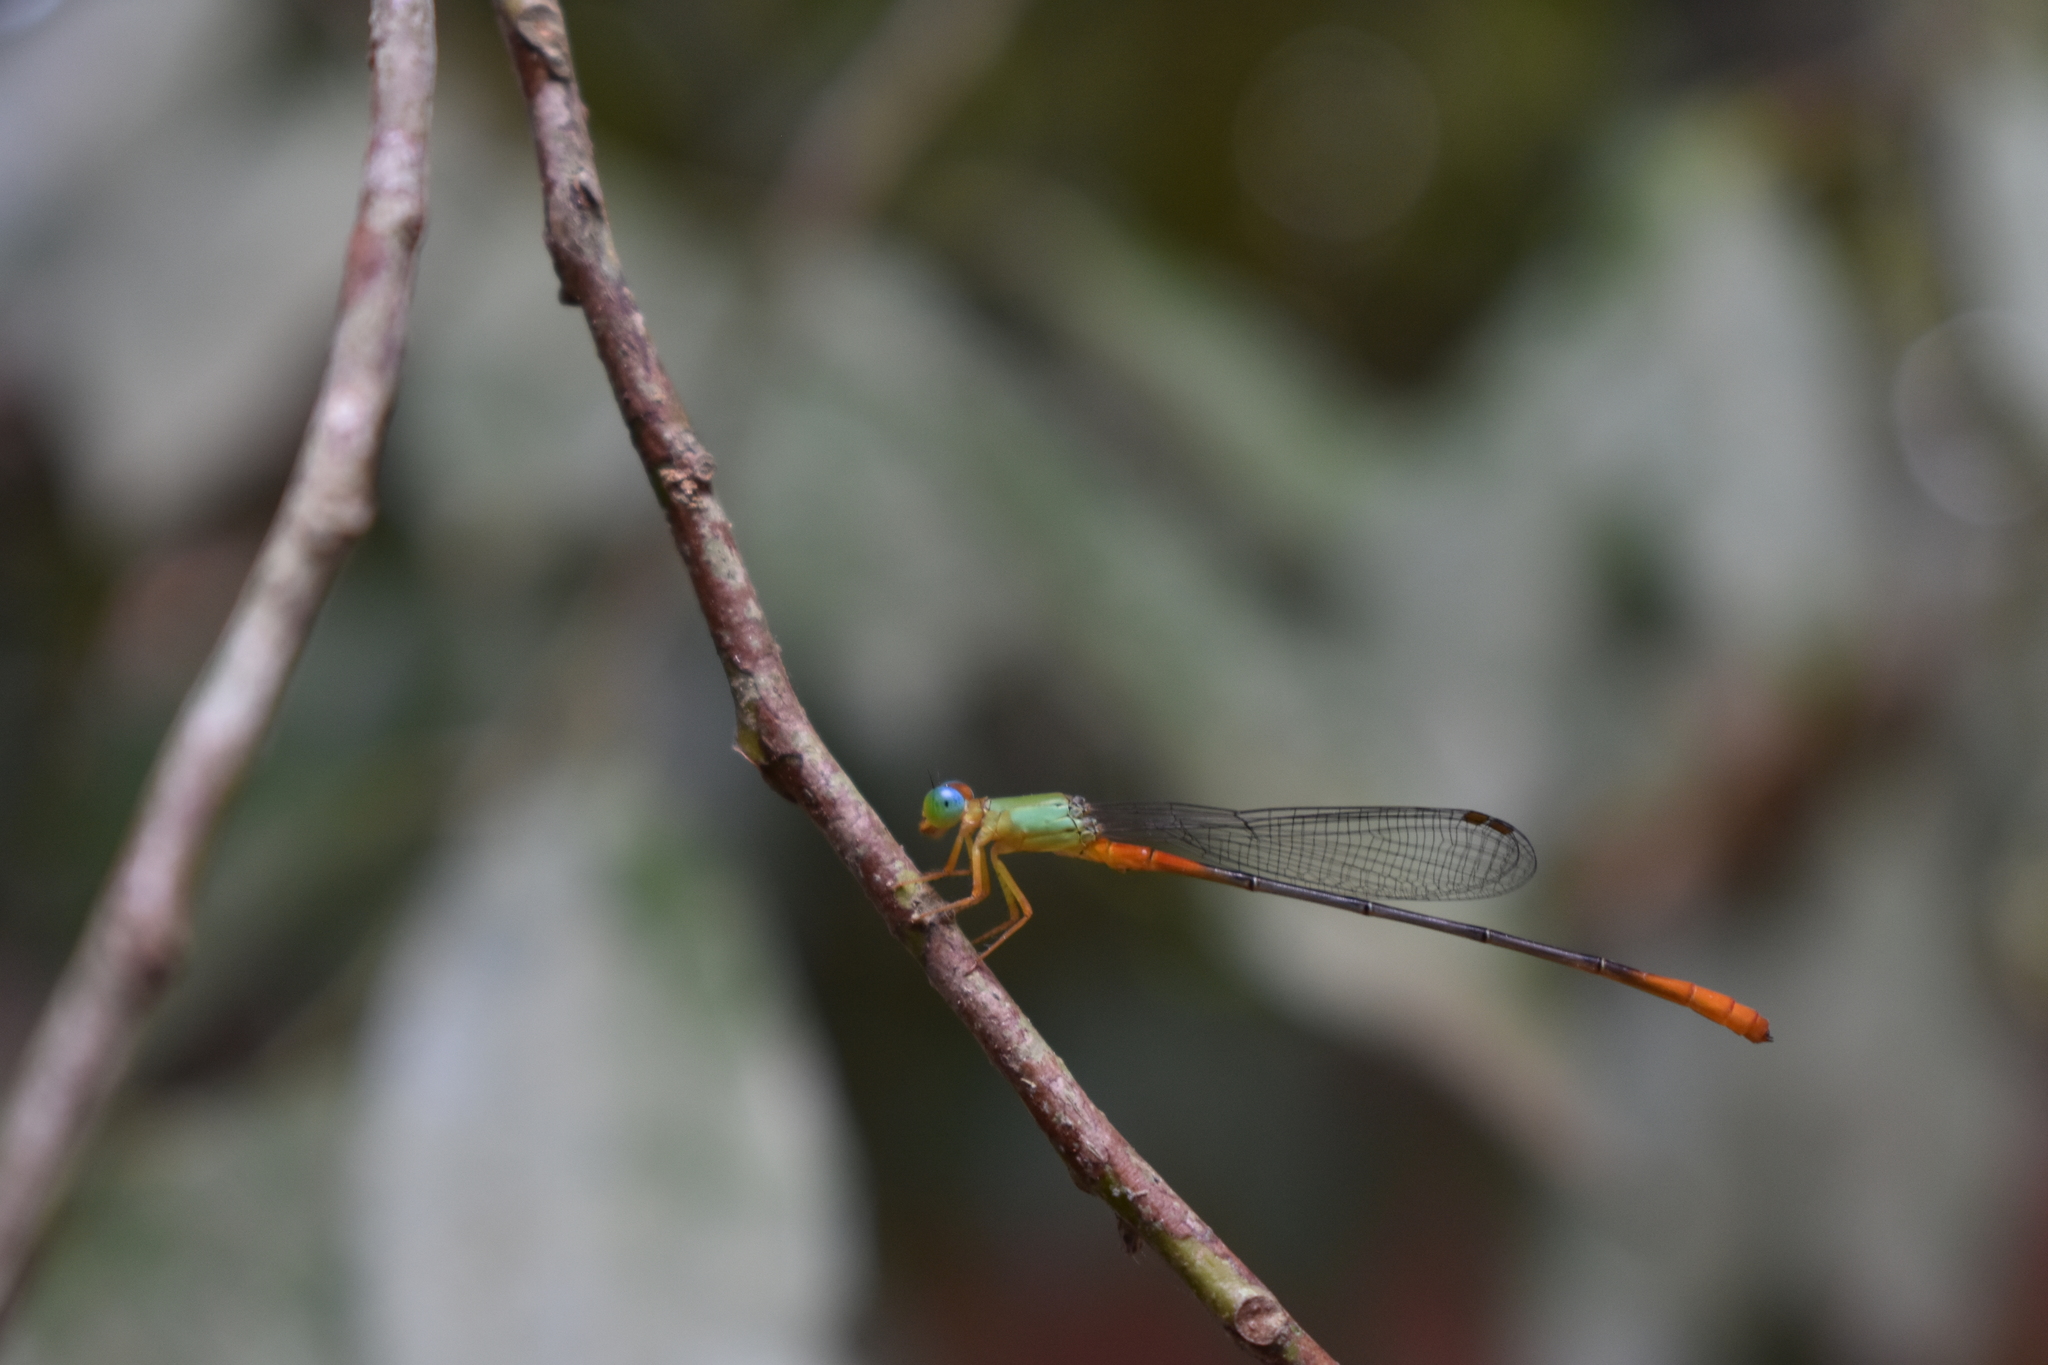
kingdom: Animalia
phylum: Arthropoda
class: Insecta
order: Odonata
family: Coenagrionidae
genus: Ceriagrion
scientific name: Ceriagrion cerinorubellum
